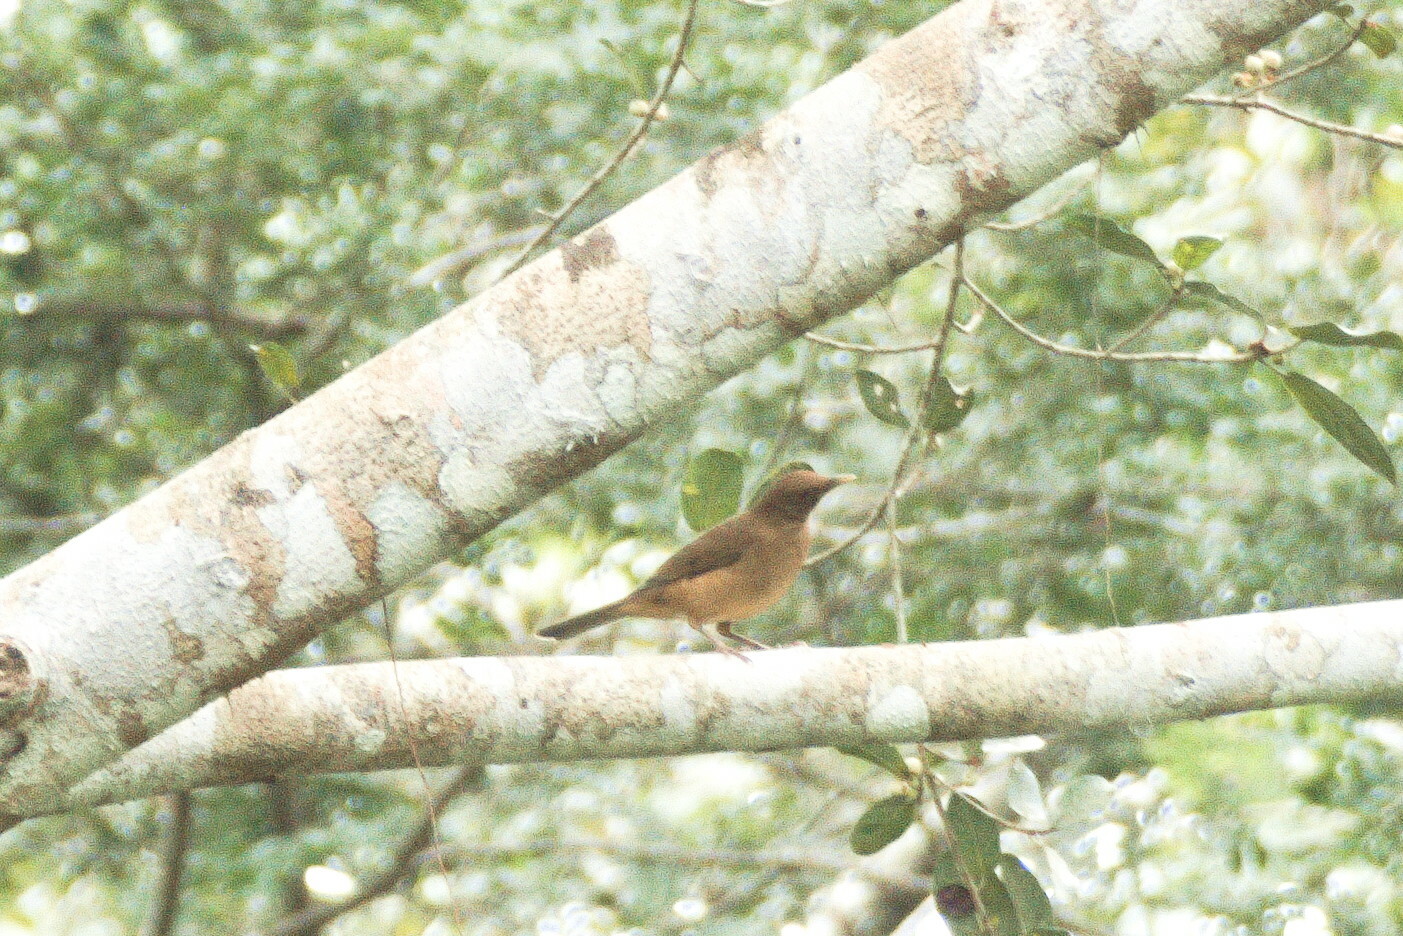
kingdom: Animalia
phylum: Chordata
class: Aves
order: Passeriformes
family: Turdidae
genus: Turdus
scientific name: Turdus grayi
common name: Clay-colored thrush
